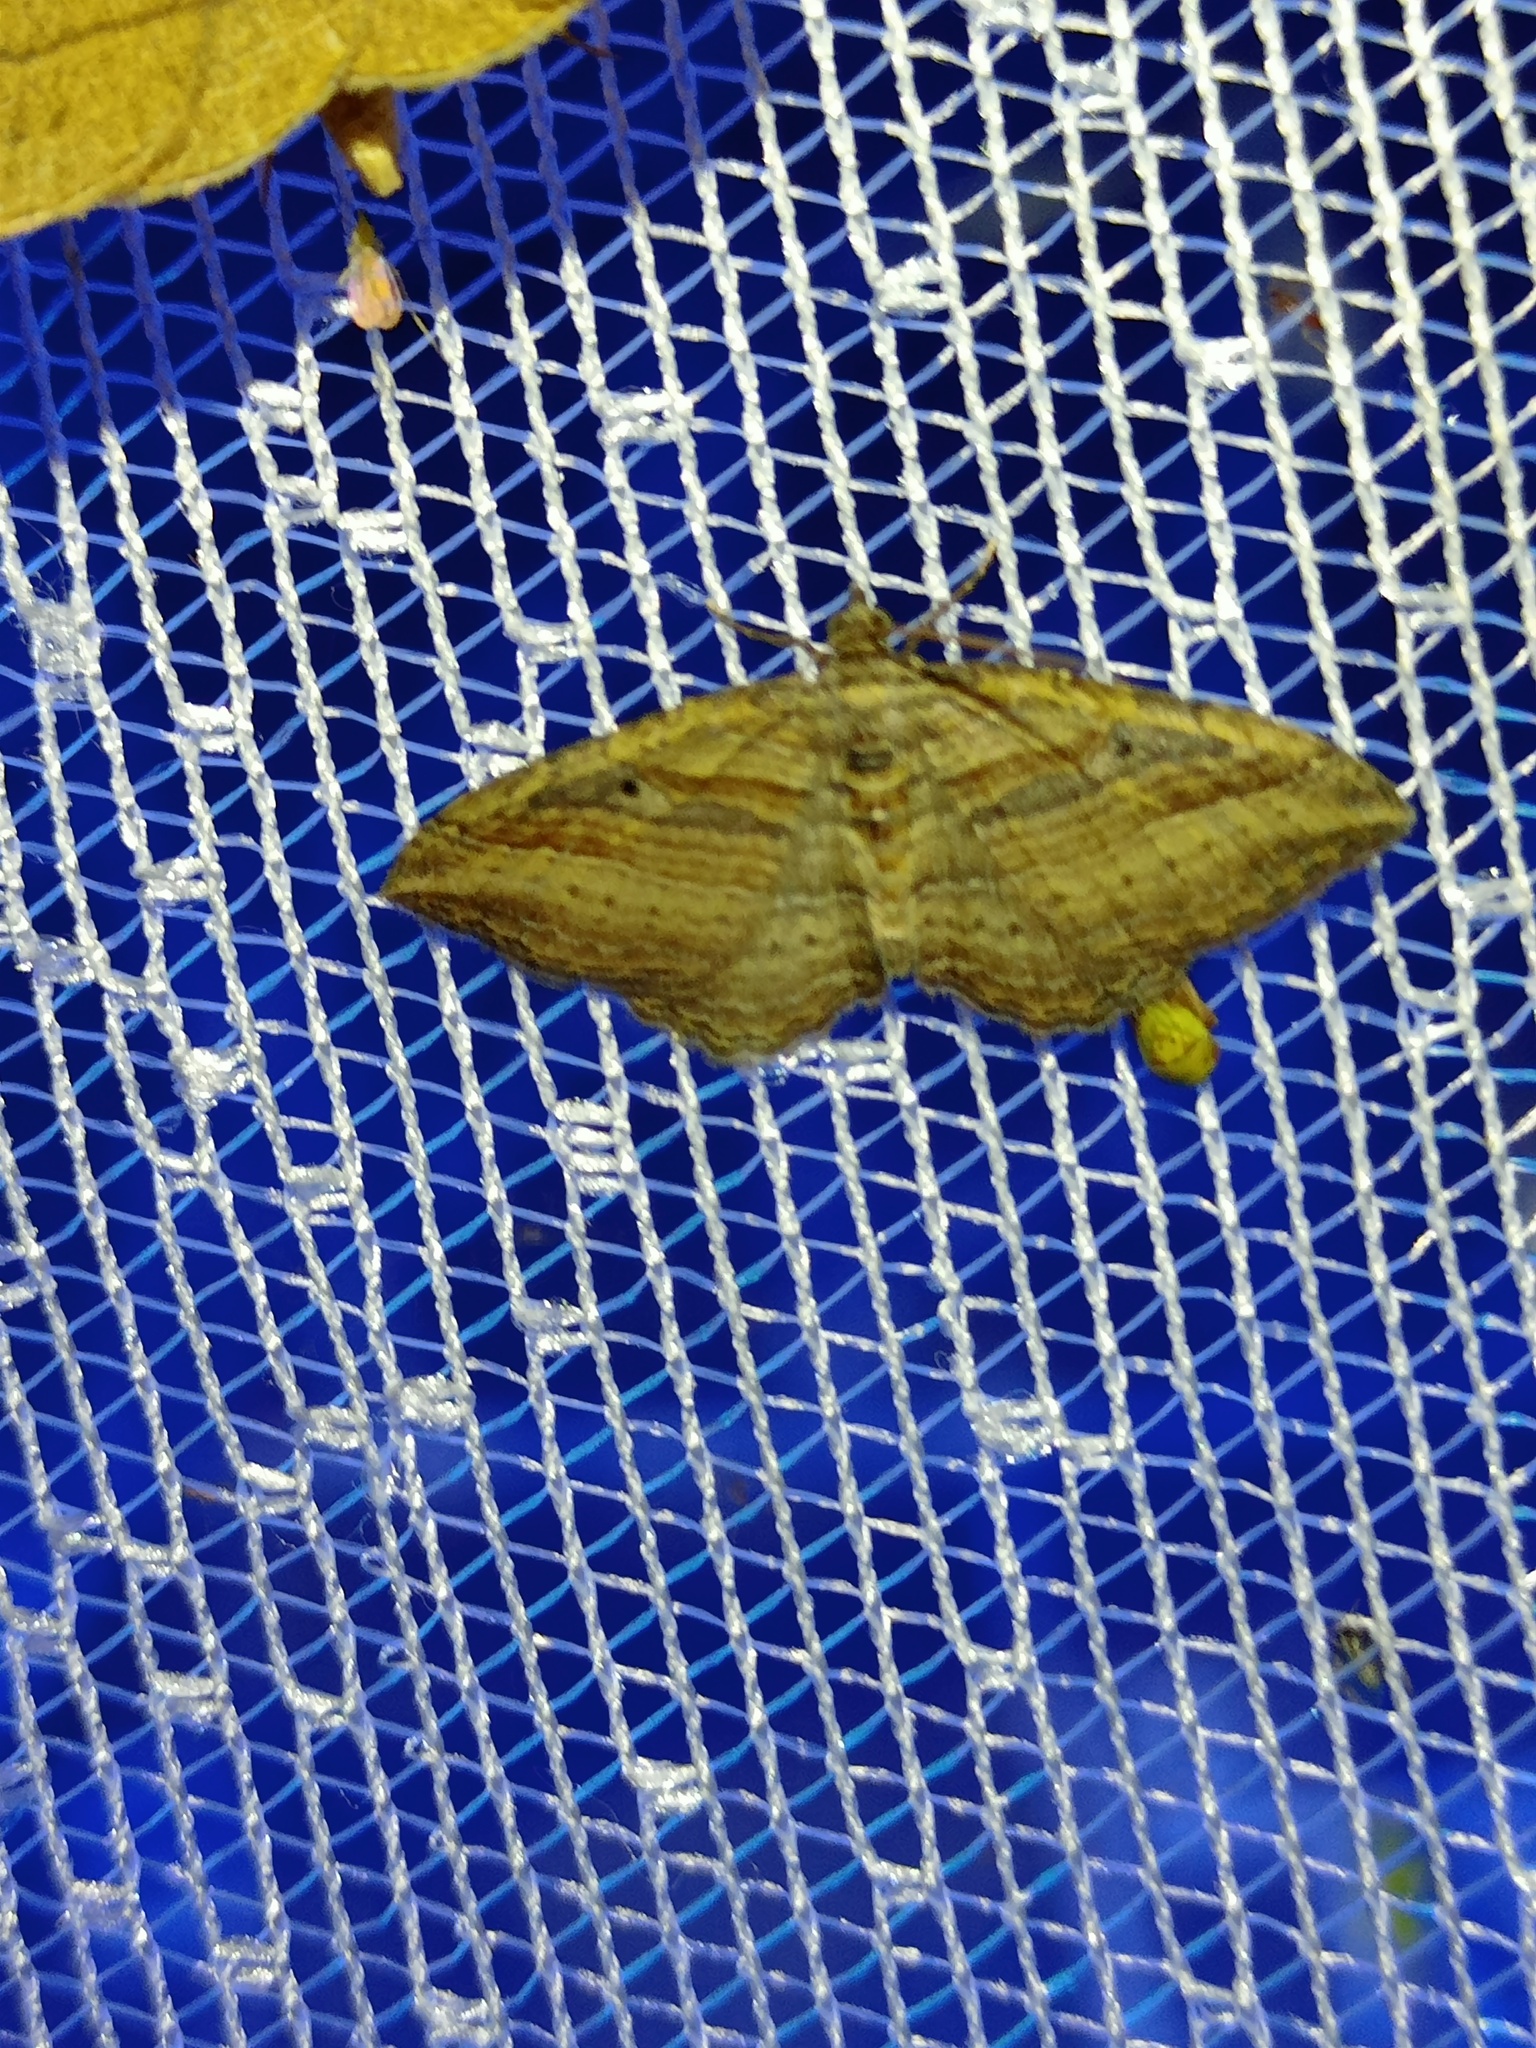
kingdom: Animalia
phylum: Arthropoda
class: Insecta
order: Lepidoptera
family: Geometridae
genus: Costaconvexa
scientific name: Costaconvexa polygrammata
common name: Many-lined
